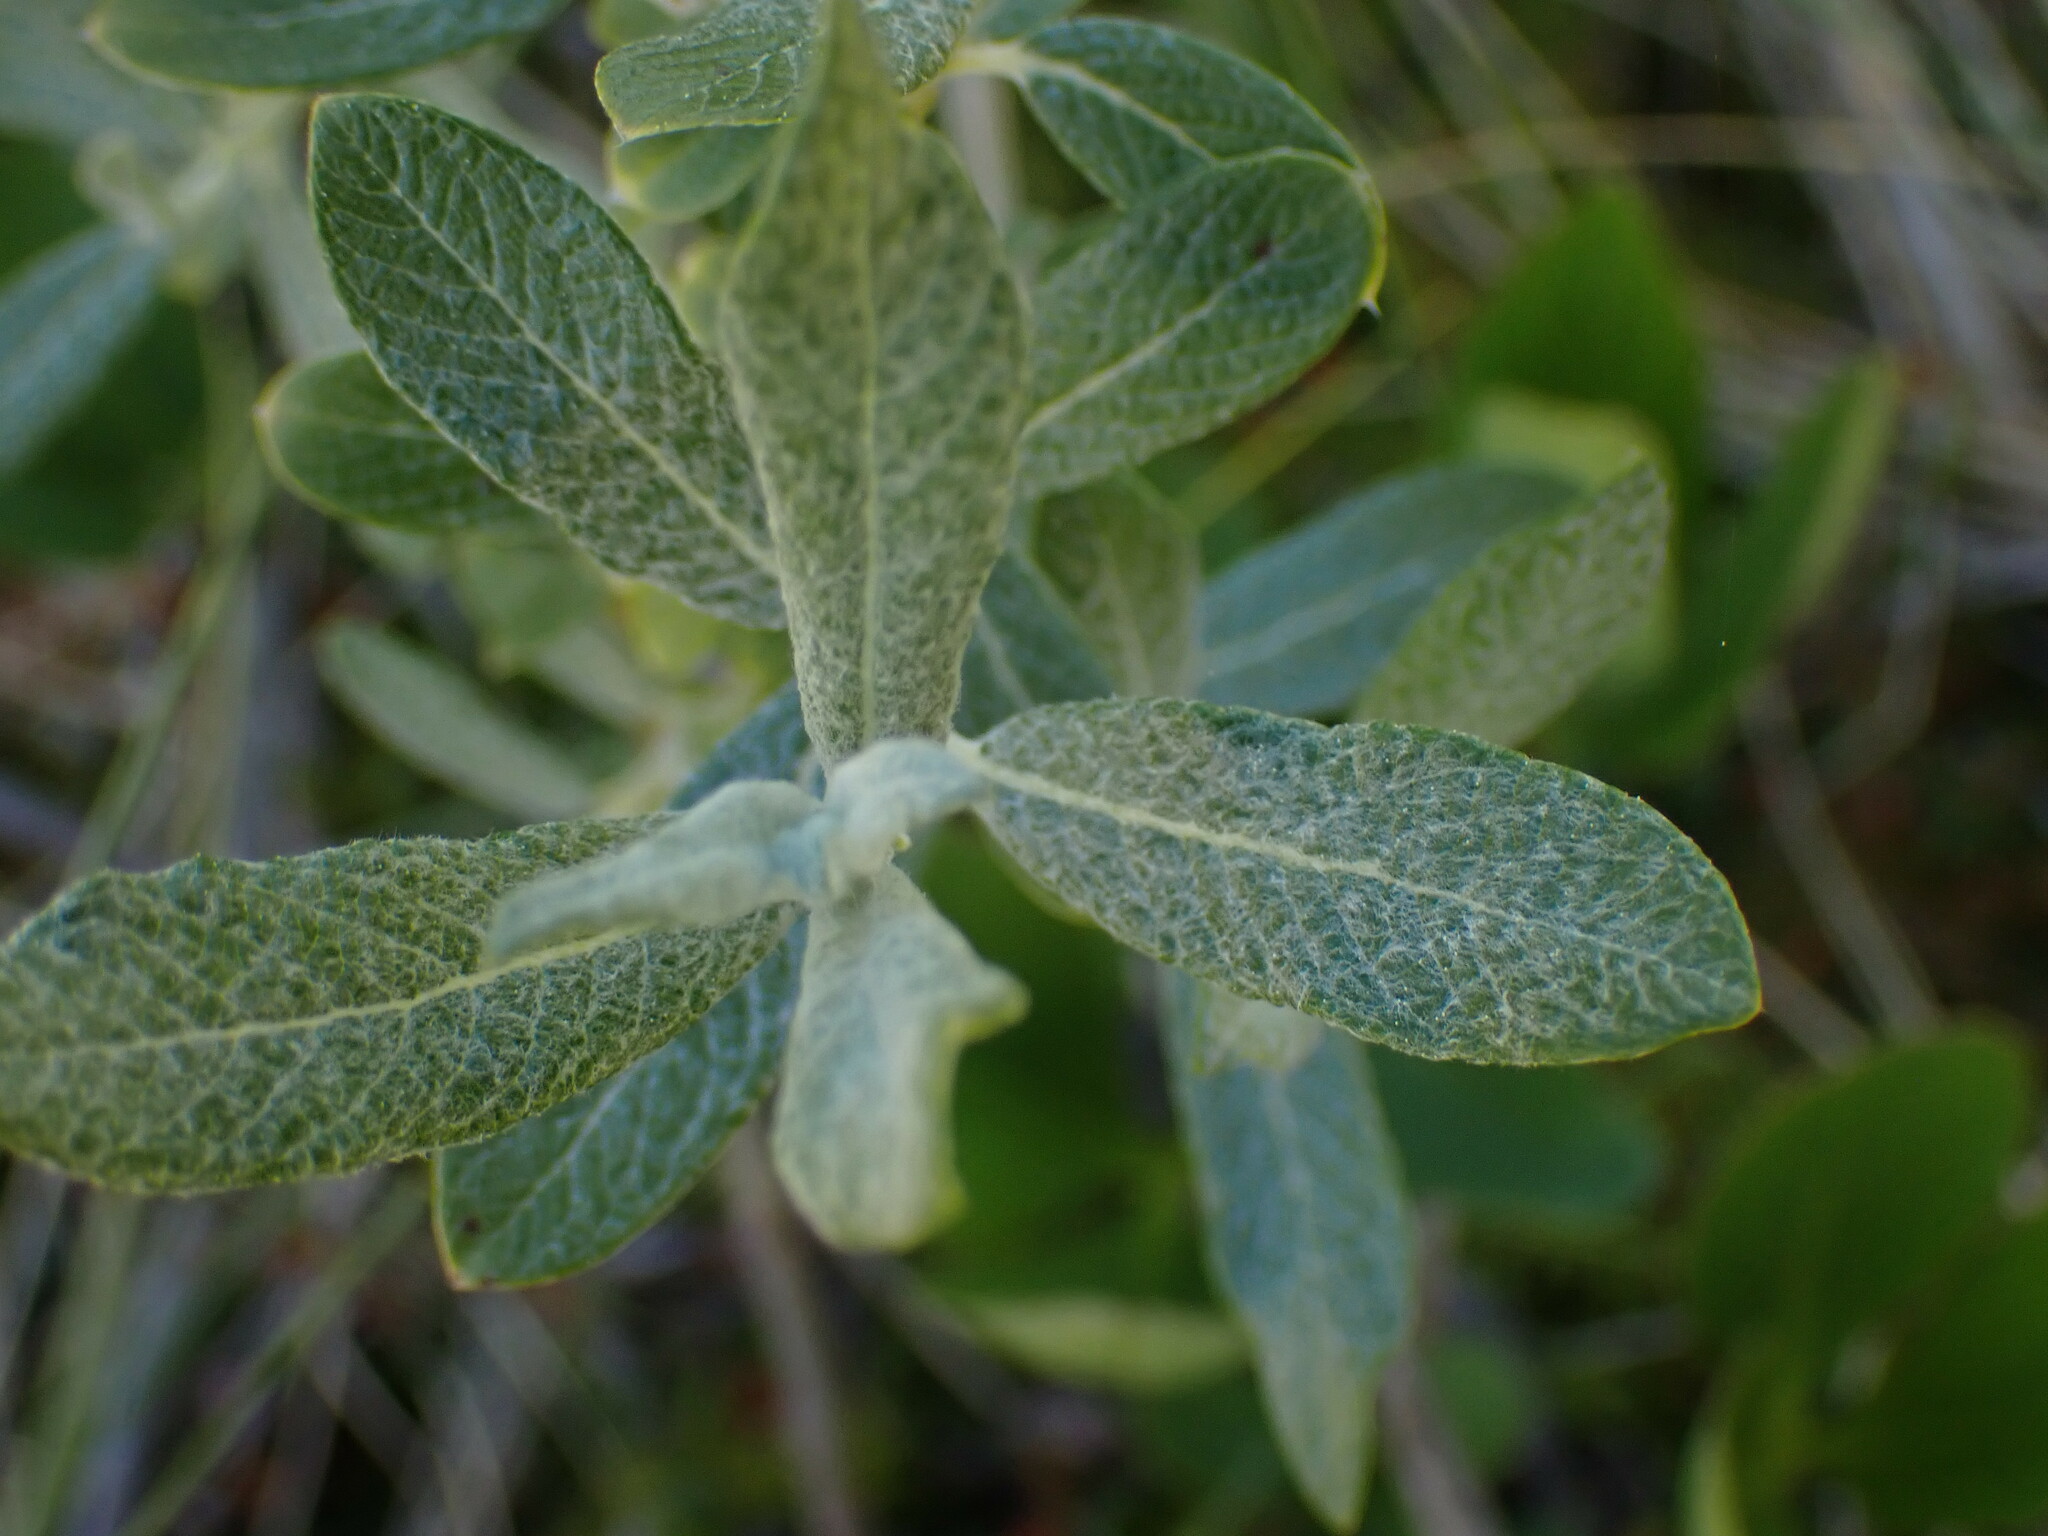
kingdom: Plantae
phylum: Tracheophyta
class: Magnoliopsida
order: Malpighiales
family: Salicaceae
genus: Salix
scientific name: Salix candida
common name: Hoary willow
